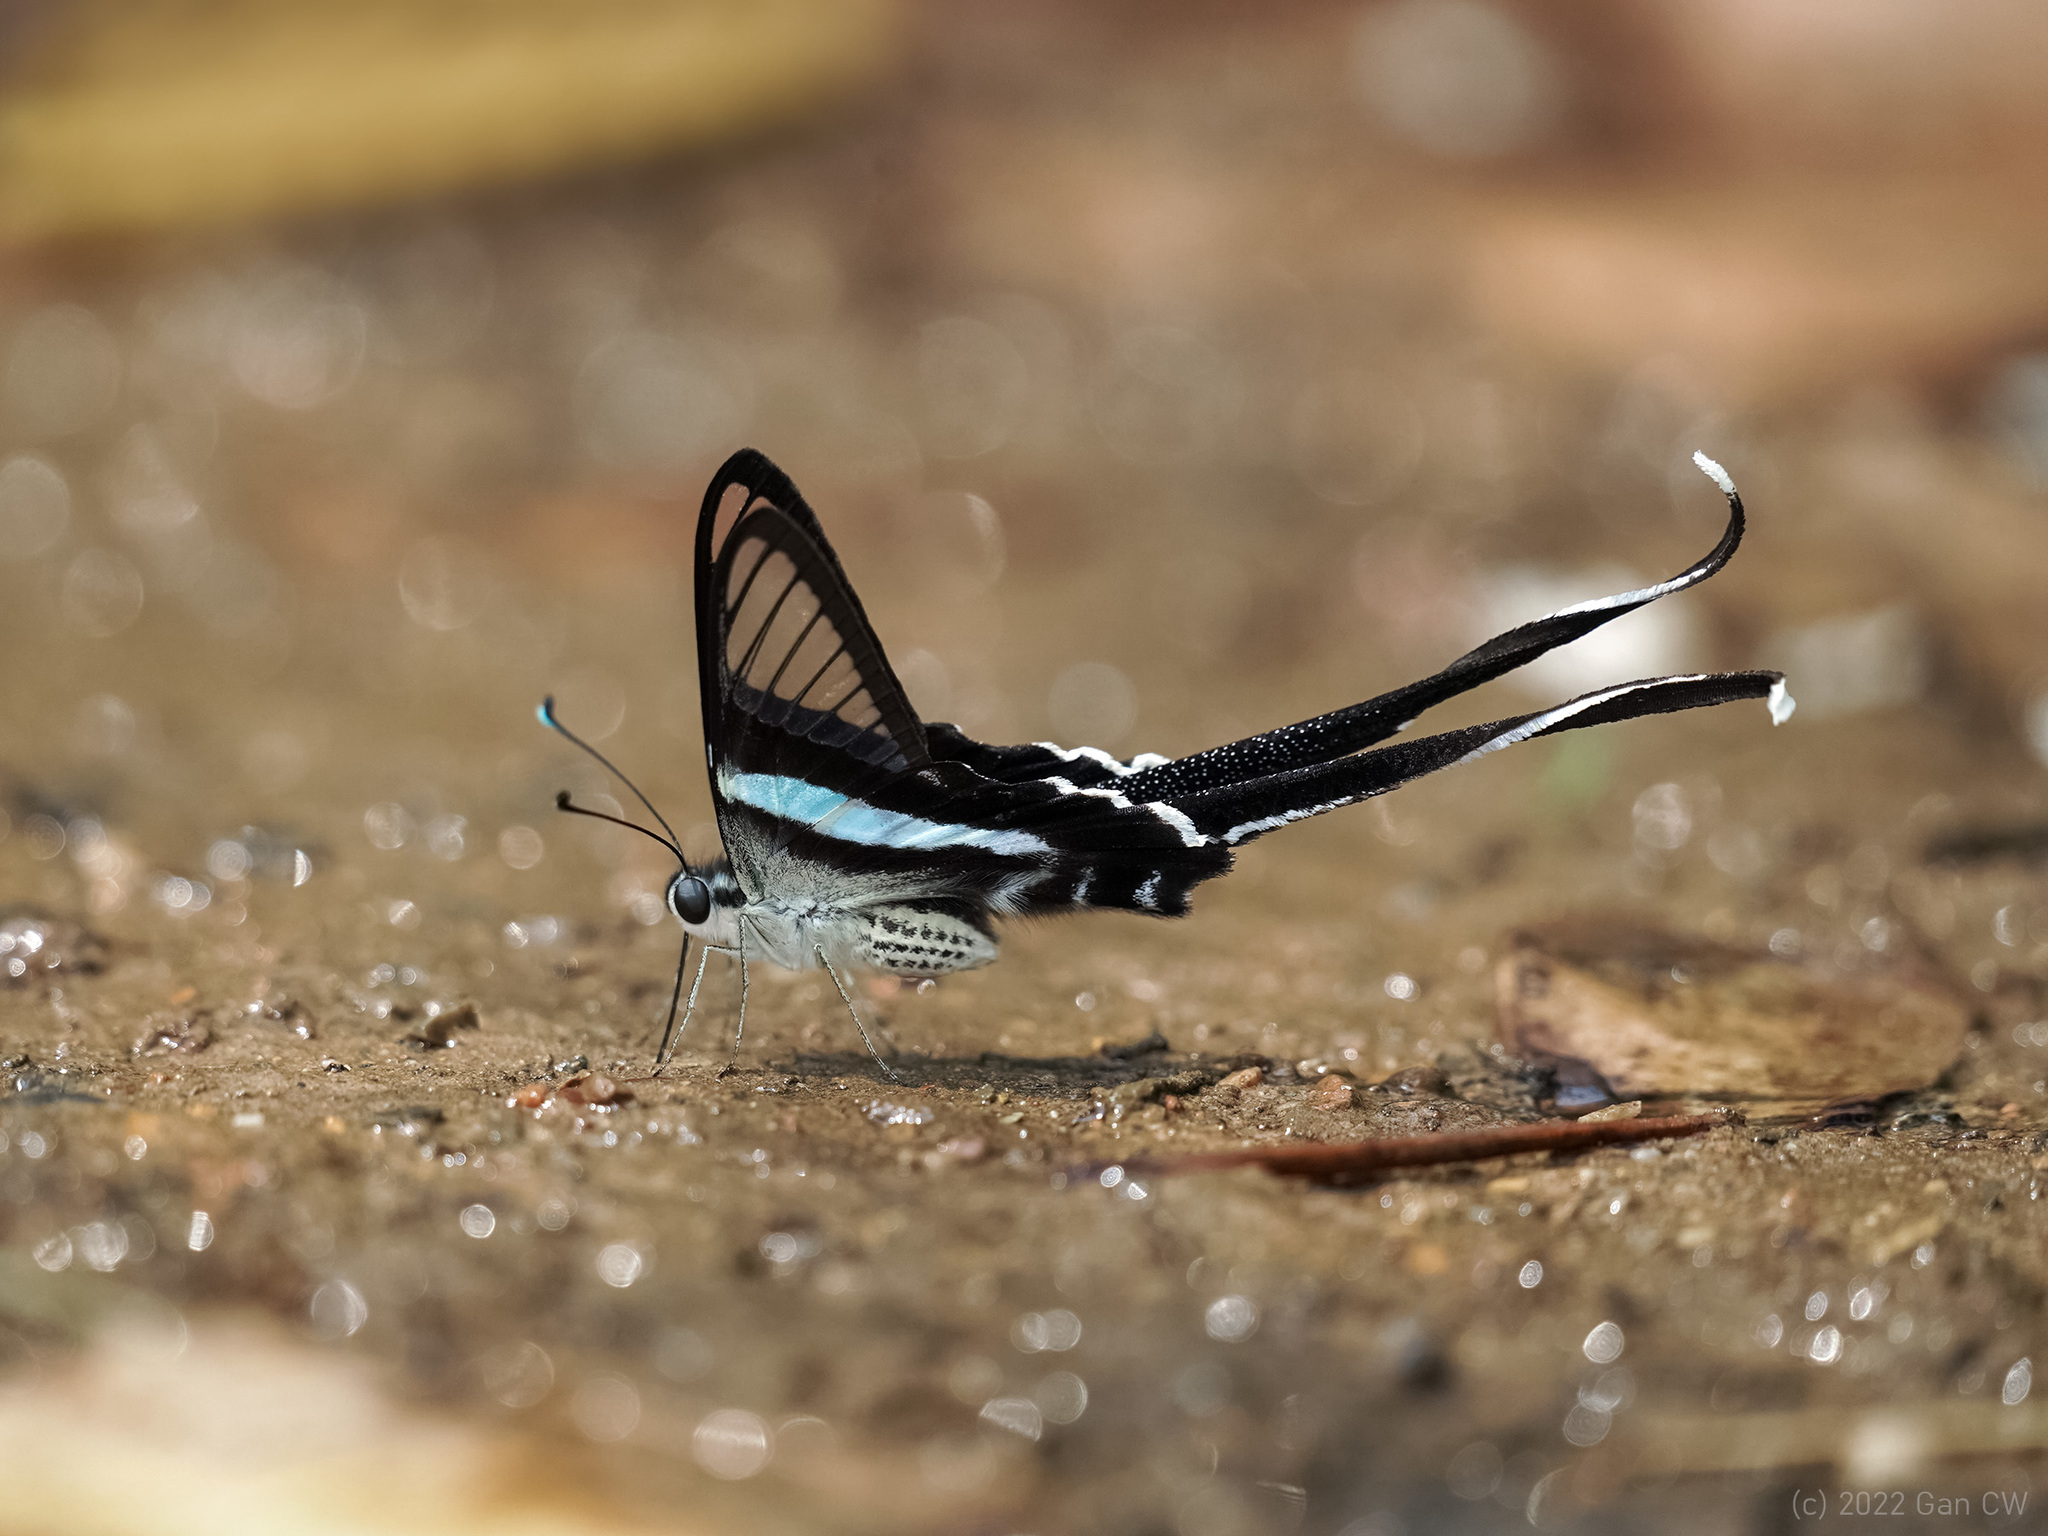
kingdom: Animalia
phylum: Arthropoda
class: Insecta
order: Lepidoptera
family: Papilionidae
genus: Lamproptera
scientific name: Lamproptera meges
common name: Green dragontail
